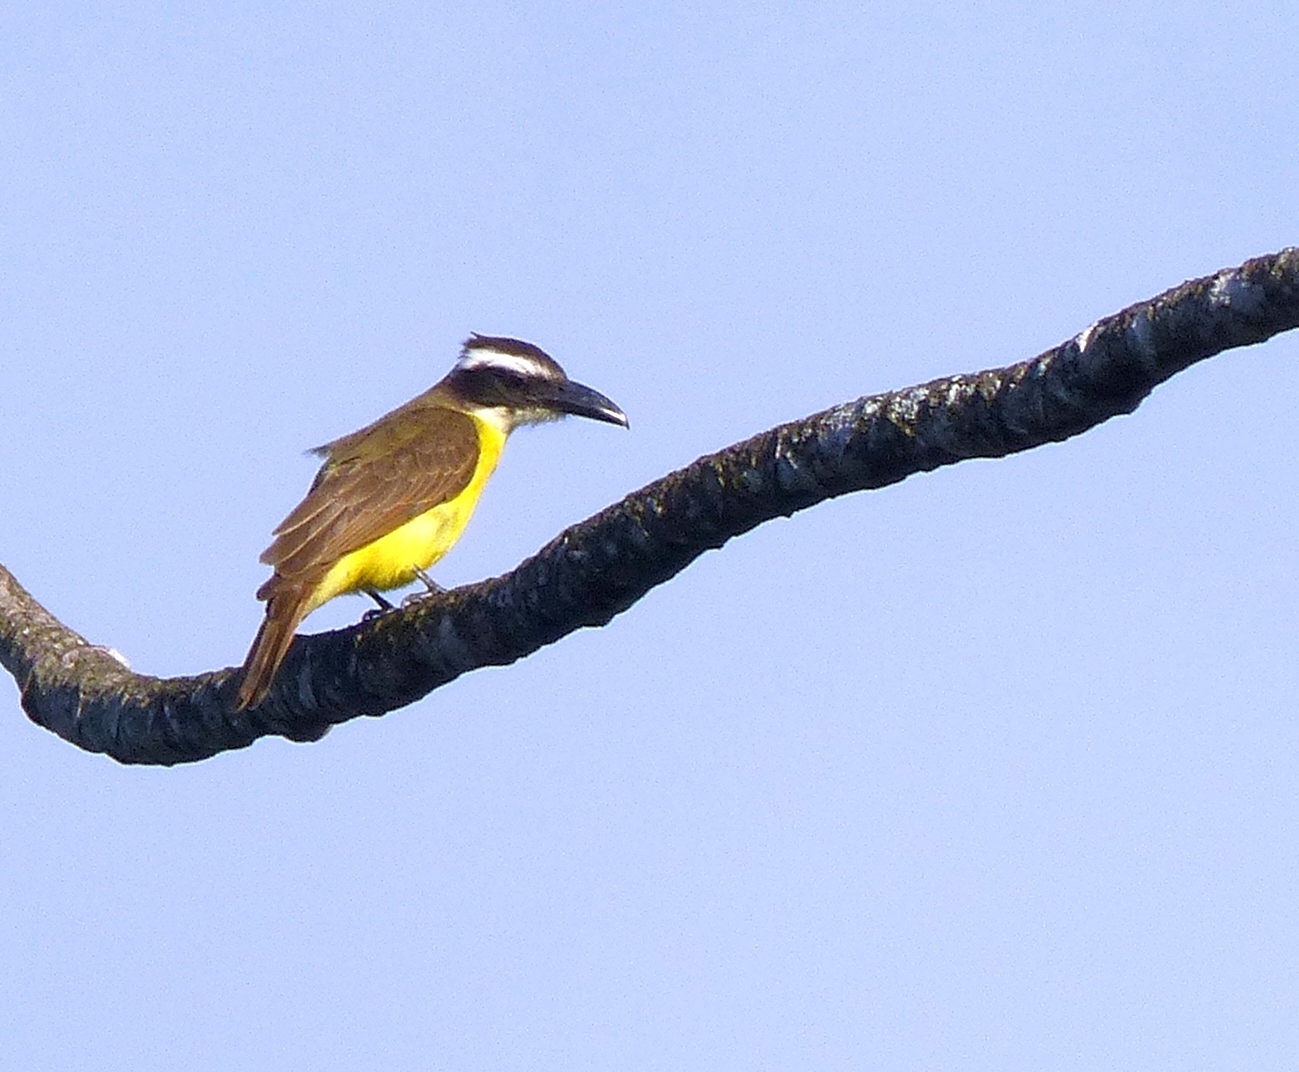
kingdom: Animalia
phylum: Chordata
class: Aves
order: Passeriformes
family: Tyrannidae
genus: Megarynchus
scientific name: Megarynchus pitangua
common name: Boat-billed flycatcher
